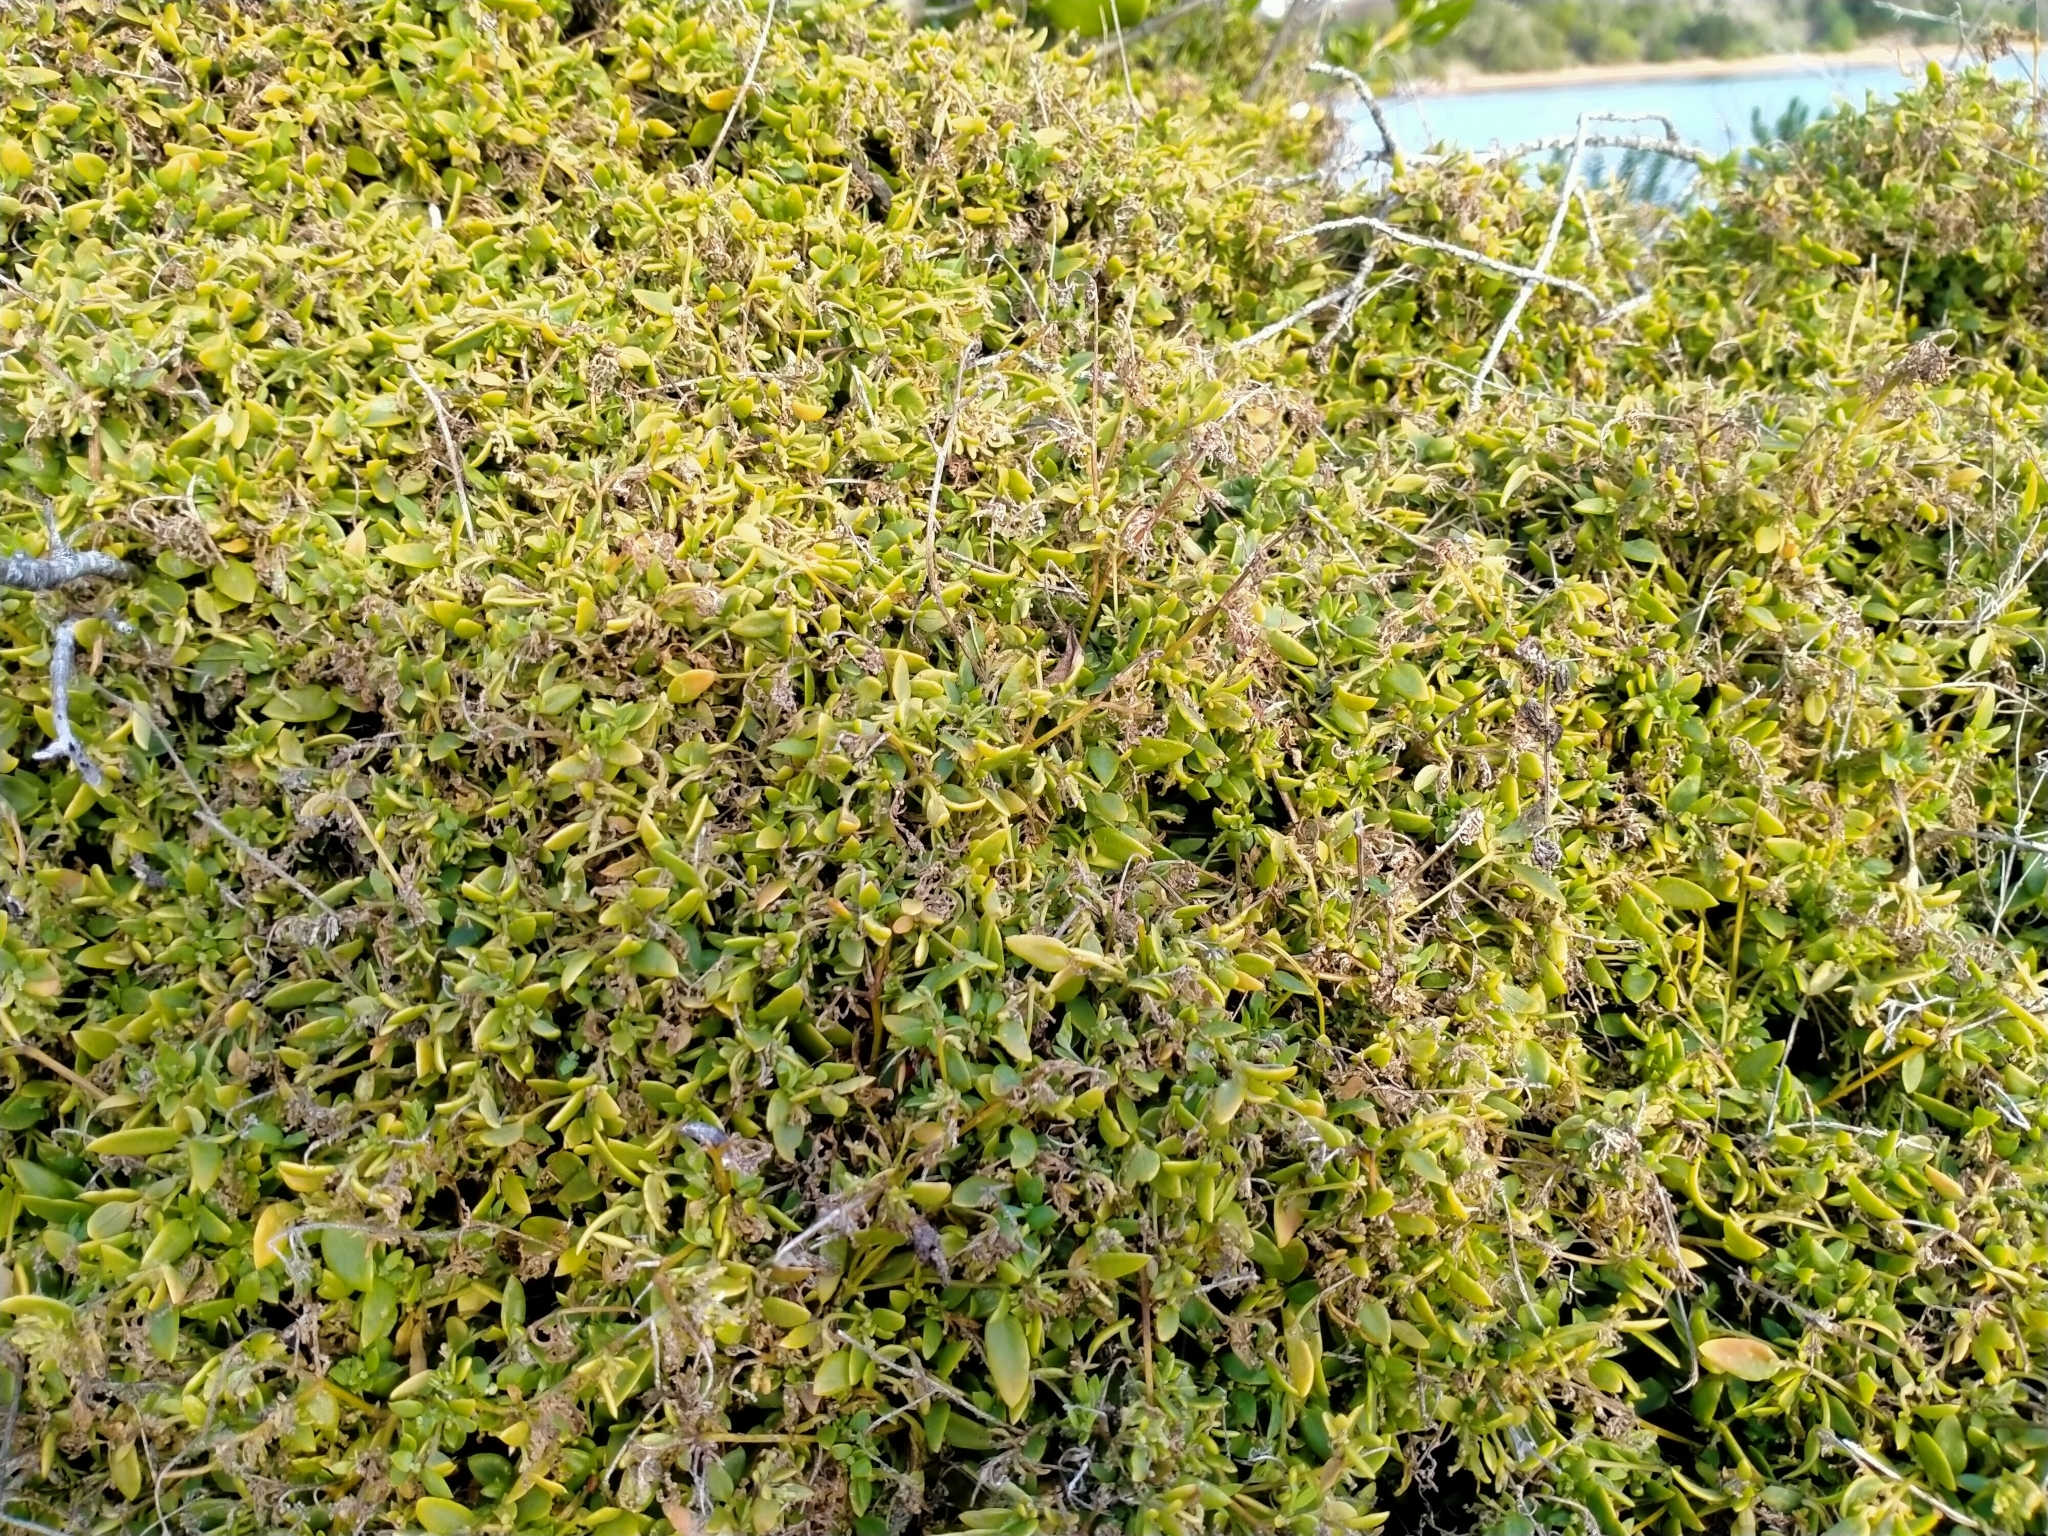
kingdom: Plantae
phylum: Tracheophyta
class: Magnoliopsida
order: Caryophyllales
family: Amaranthaceae
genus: Chenopodium
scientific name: Chenopodium nutans
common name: Climbing-saltbush
